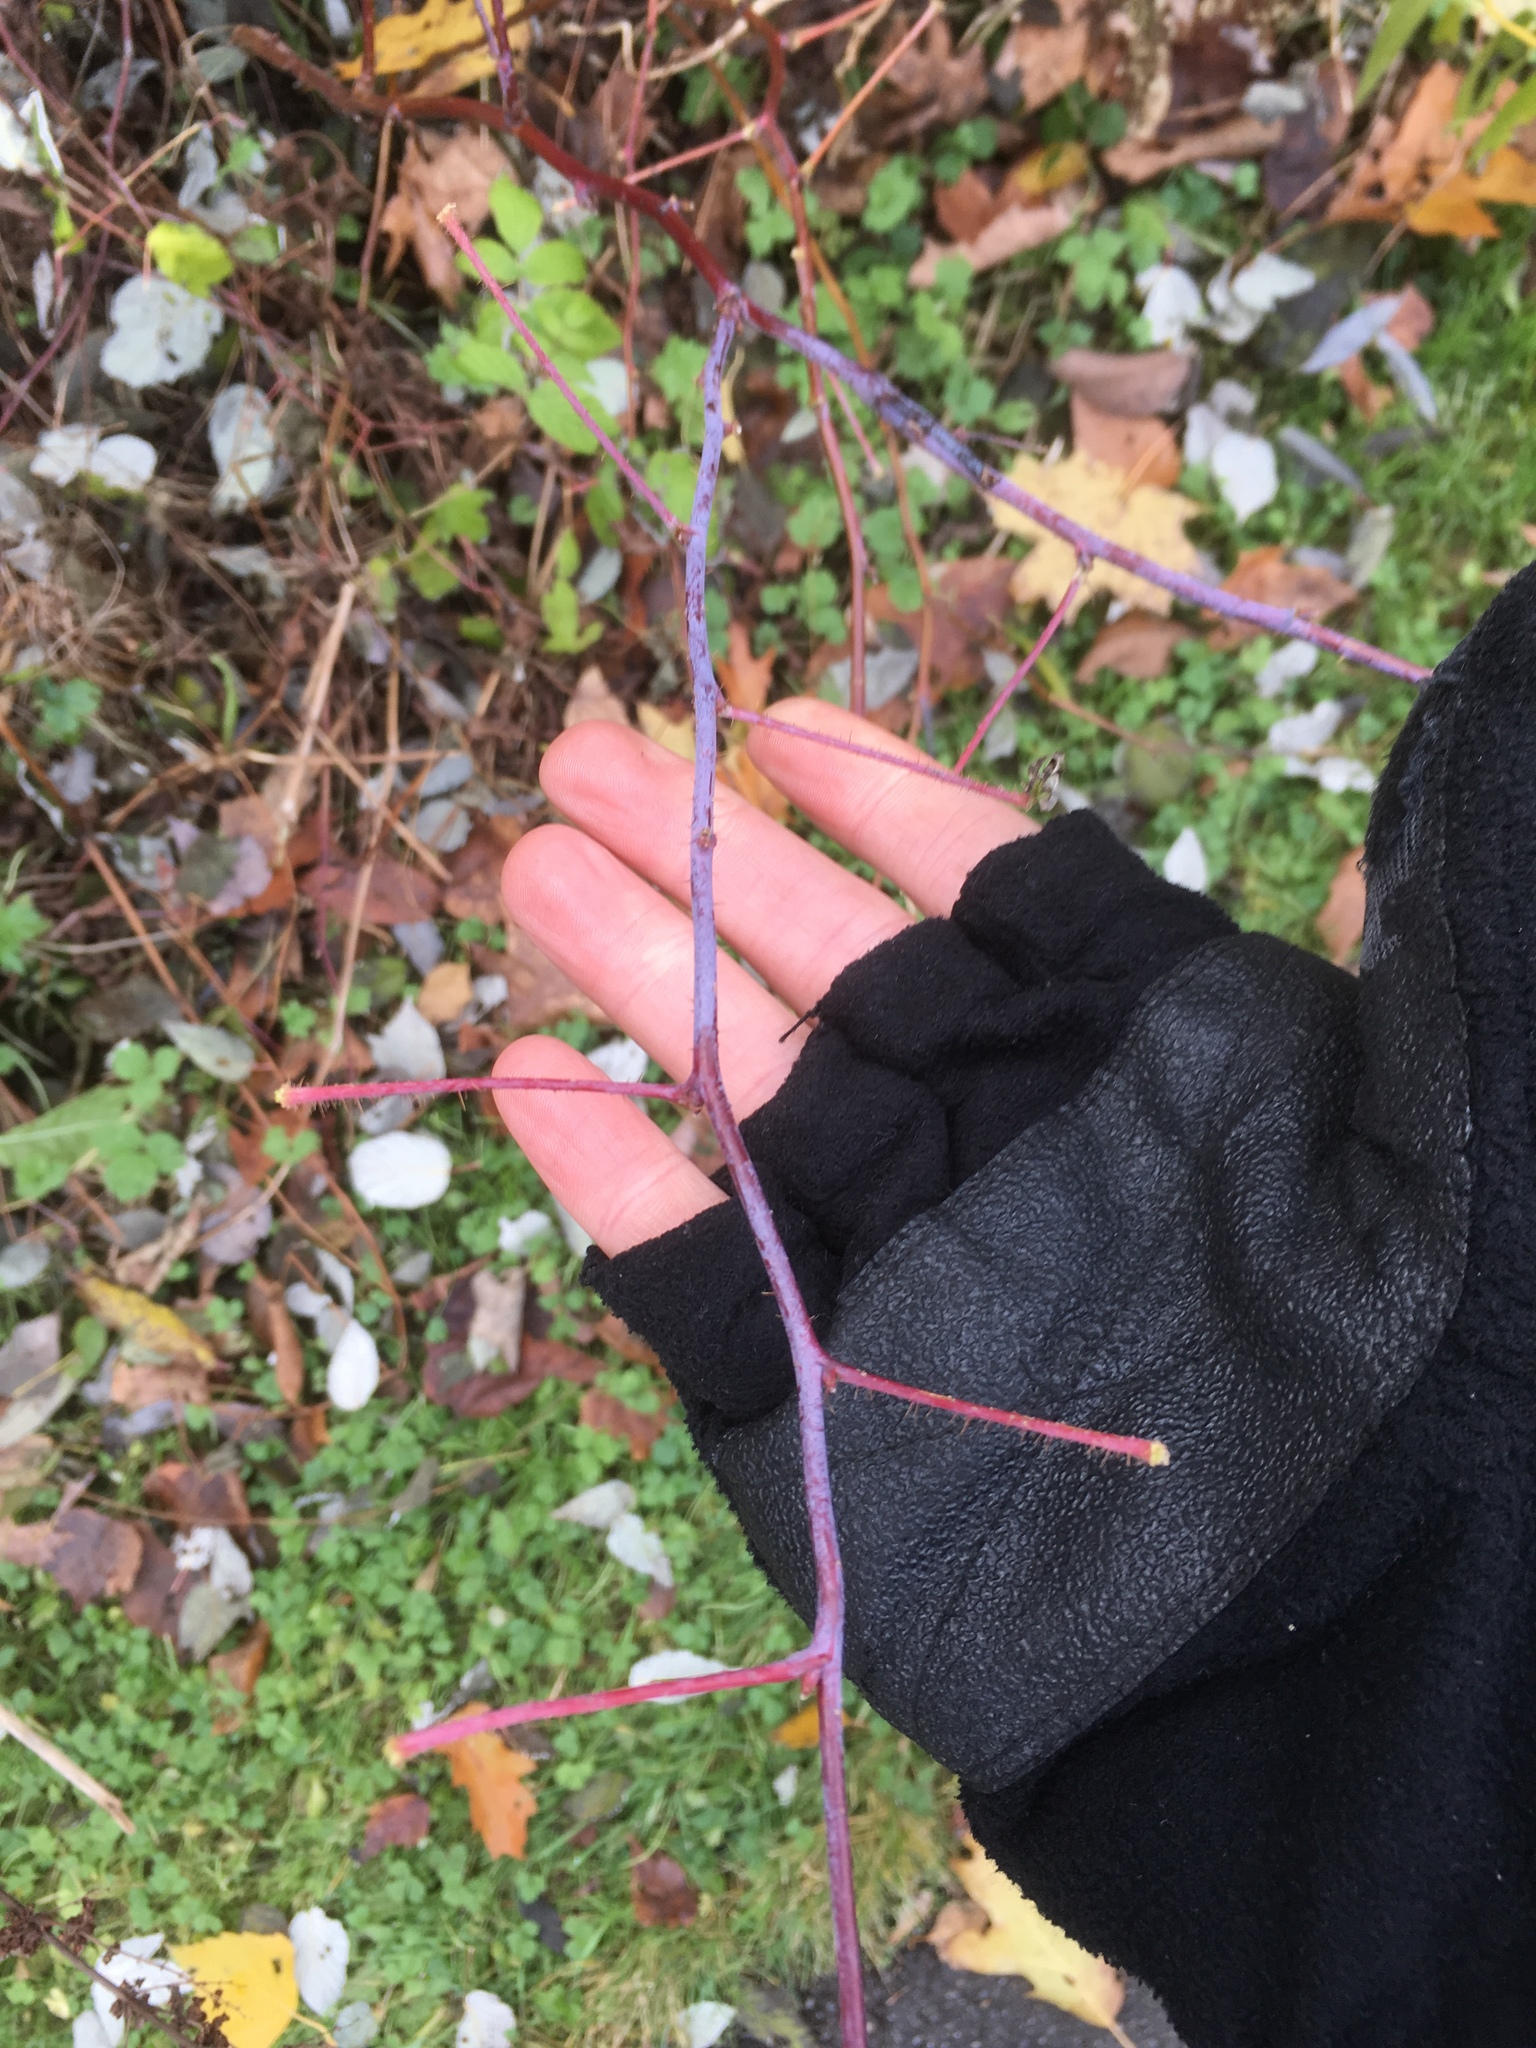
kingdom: Plantae
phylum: Tracheophyta
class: Magnoliopsida
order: Rosales
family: Rosaceae
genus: Rubus
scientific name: Rubus occidentalis
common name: Black raspberry
